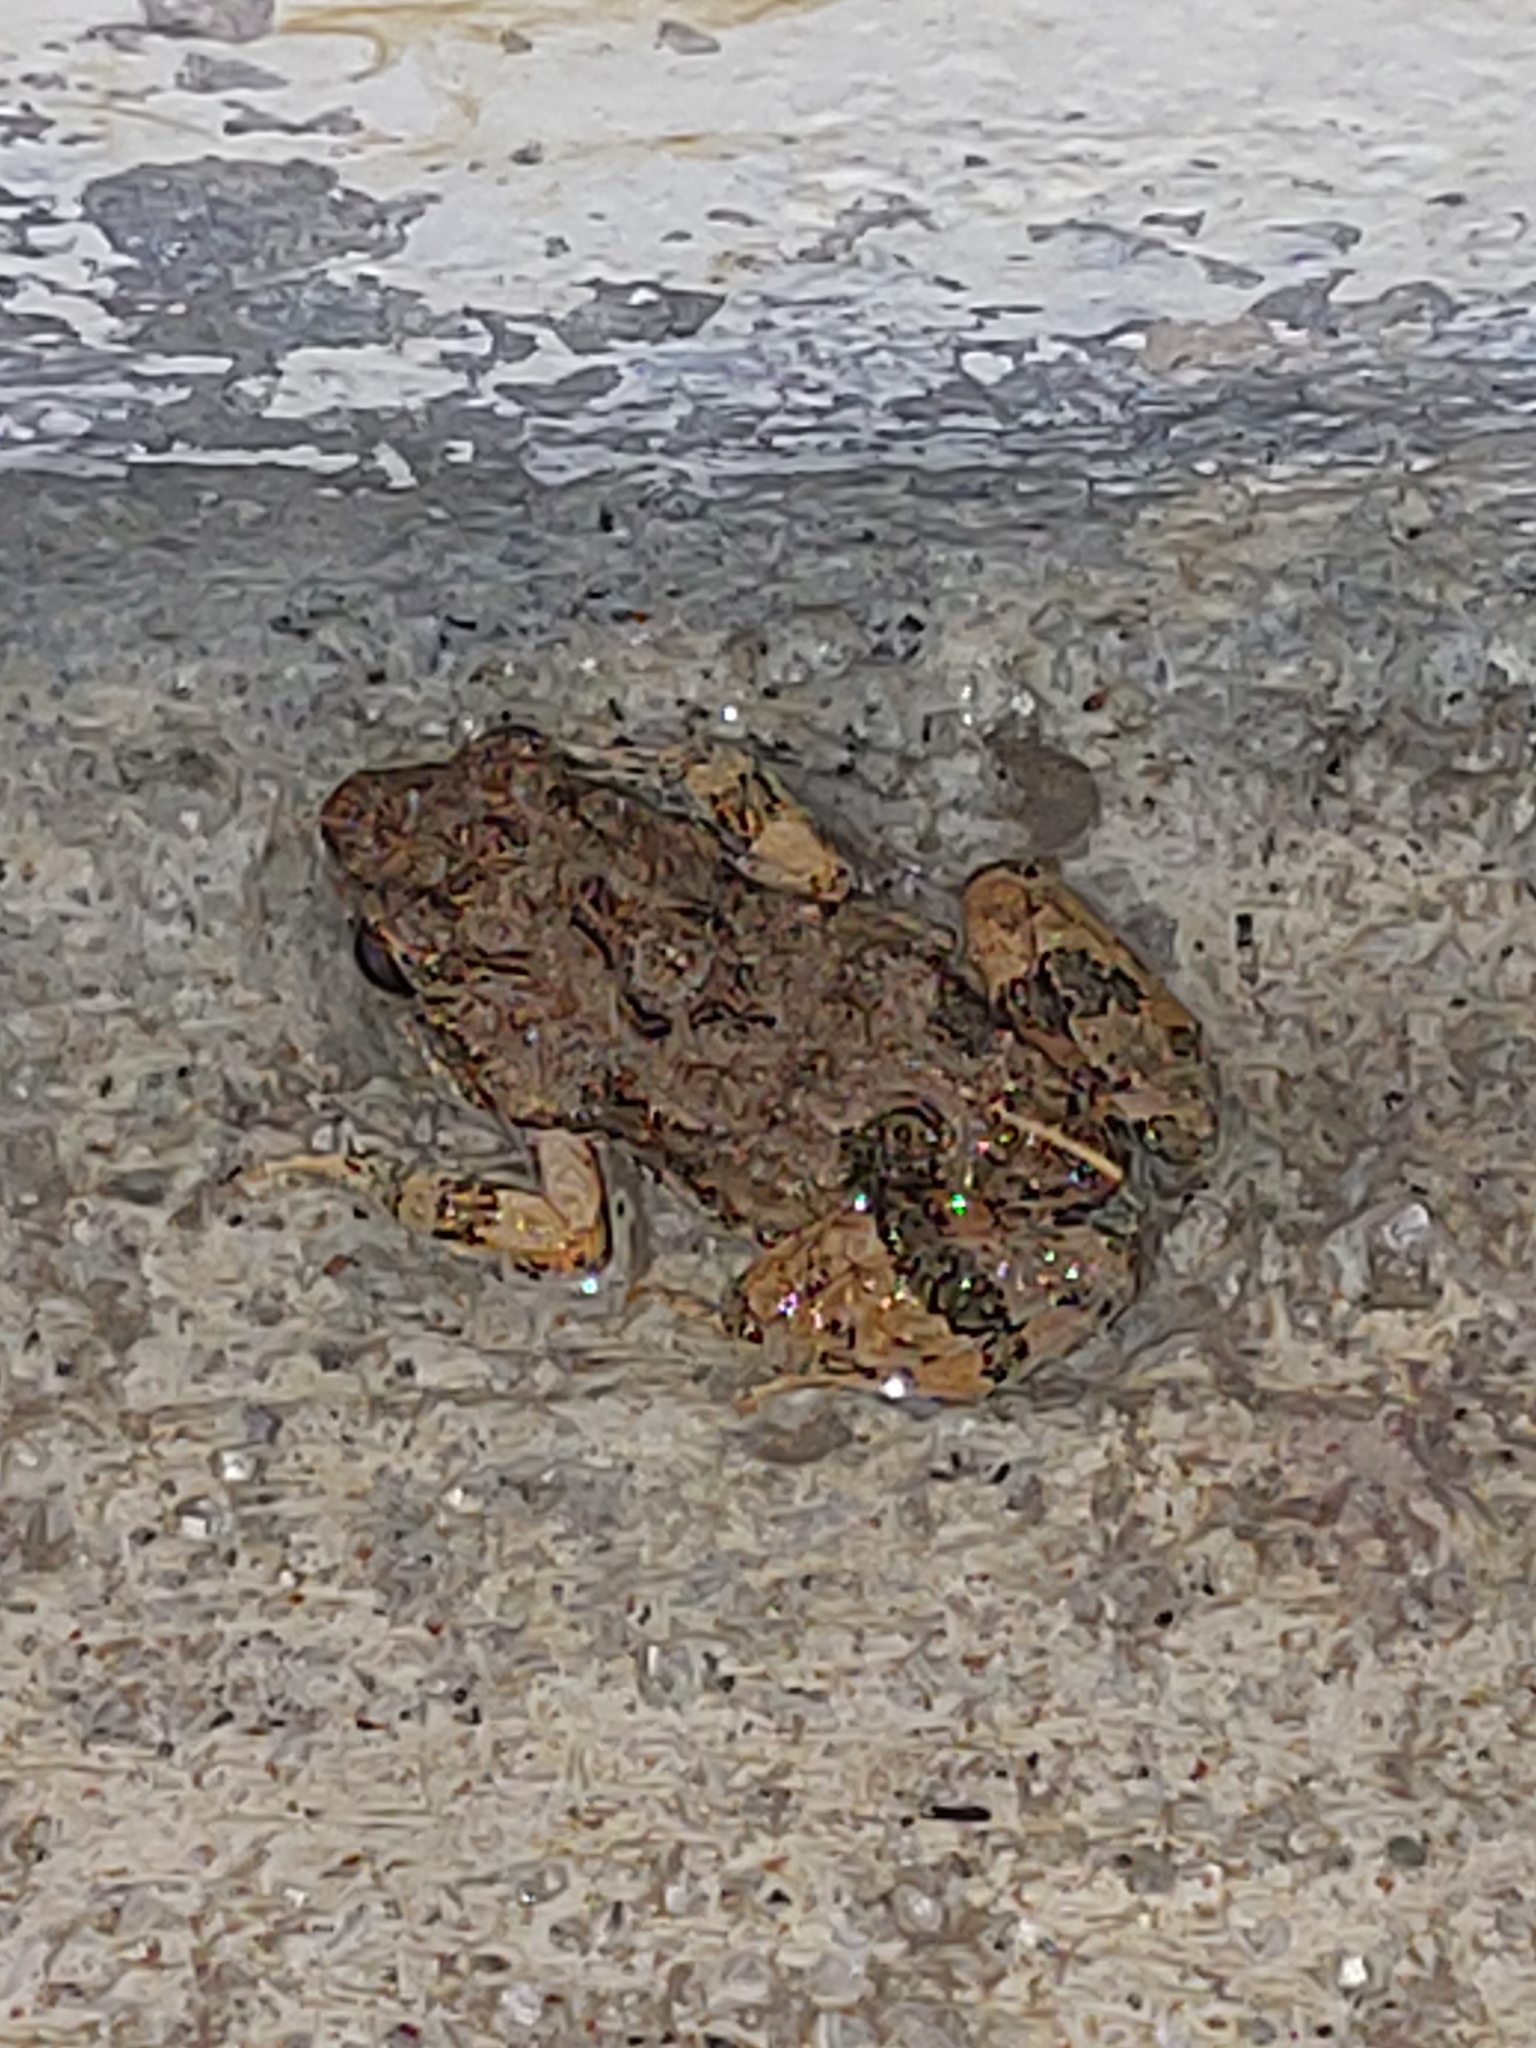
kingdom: Animalia
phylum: Chordata
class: Amphibia
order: Anura
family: Leptodactylidae
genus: Engystomops
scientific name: Engystomops pustulosus
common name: Tungara frog
